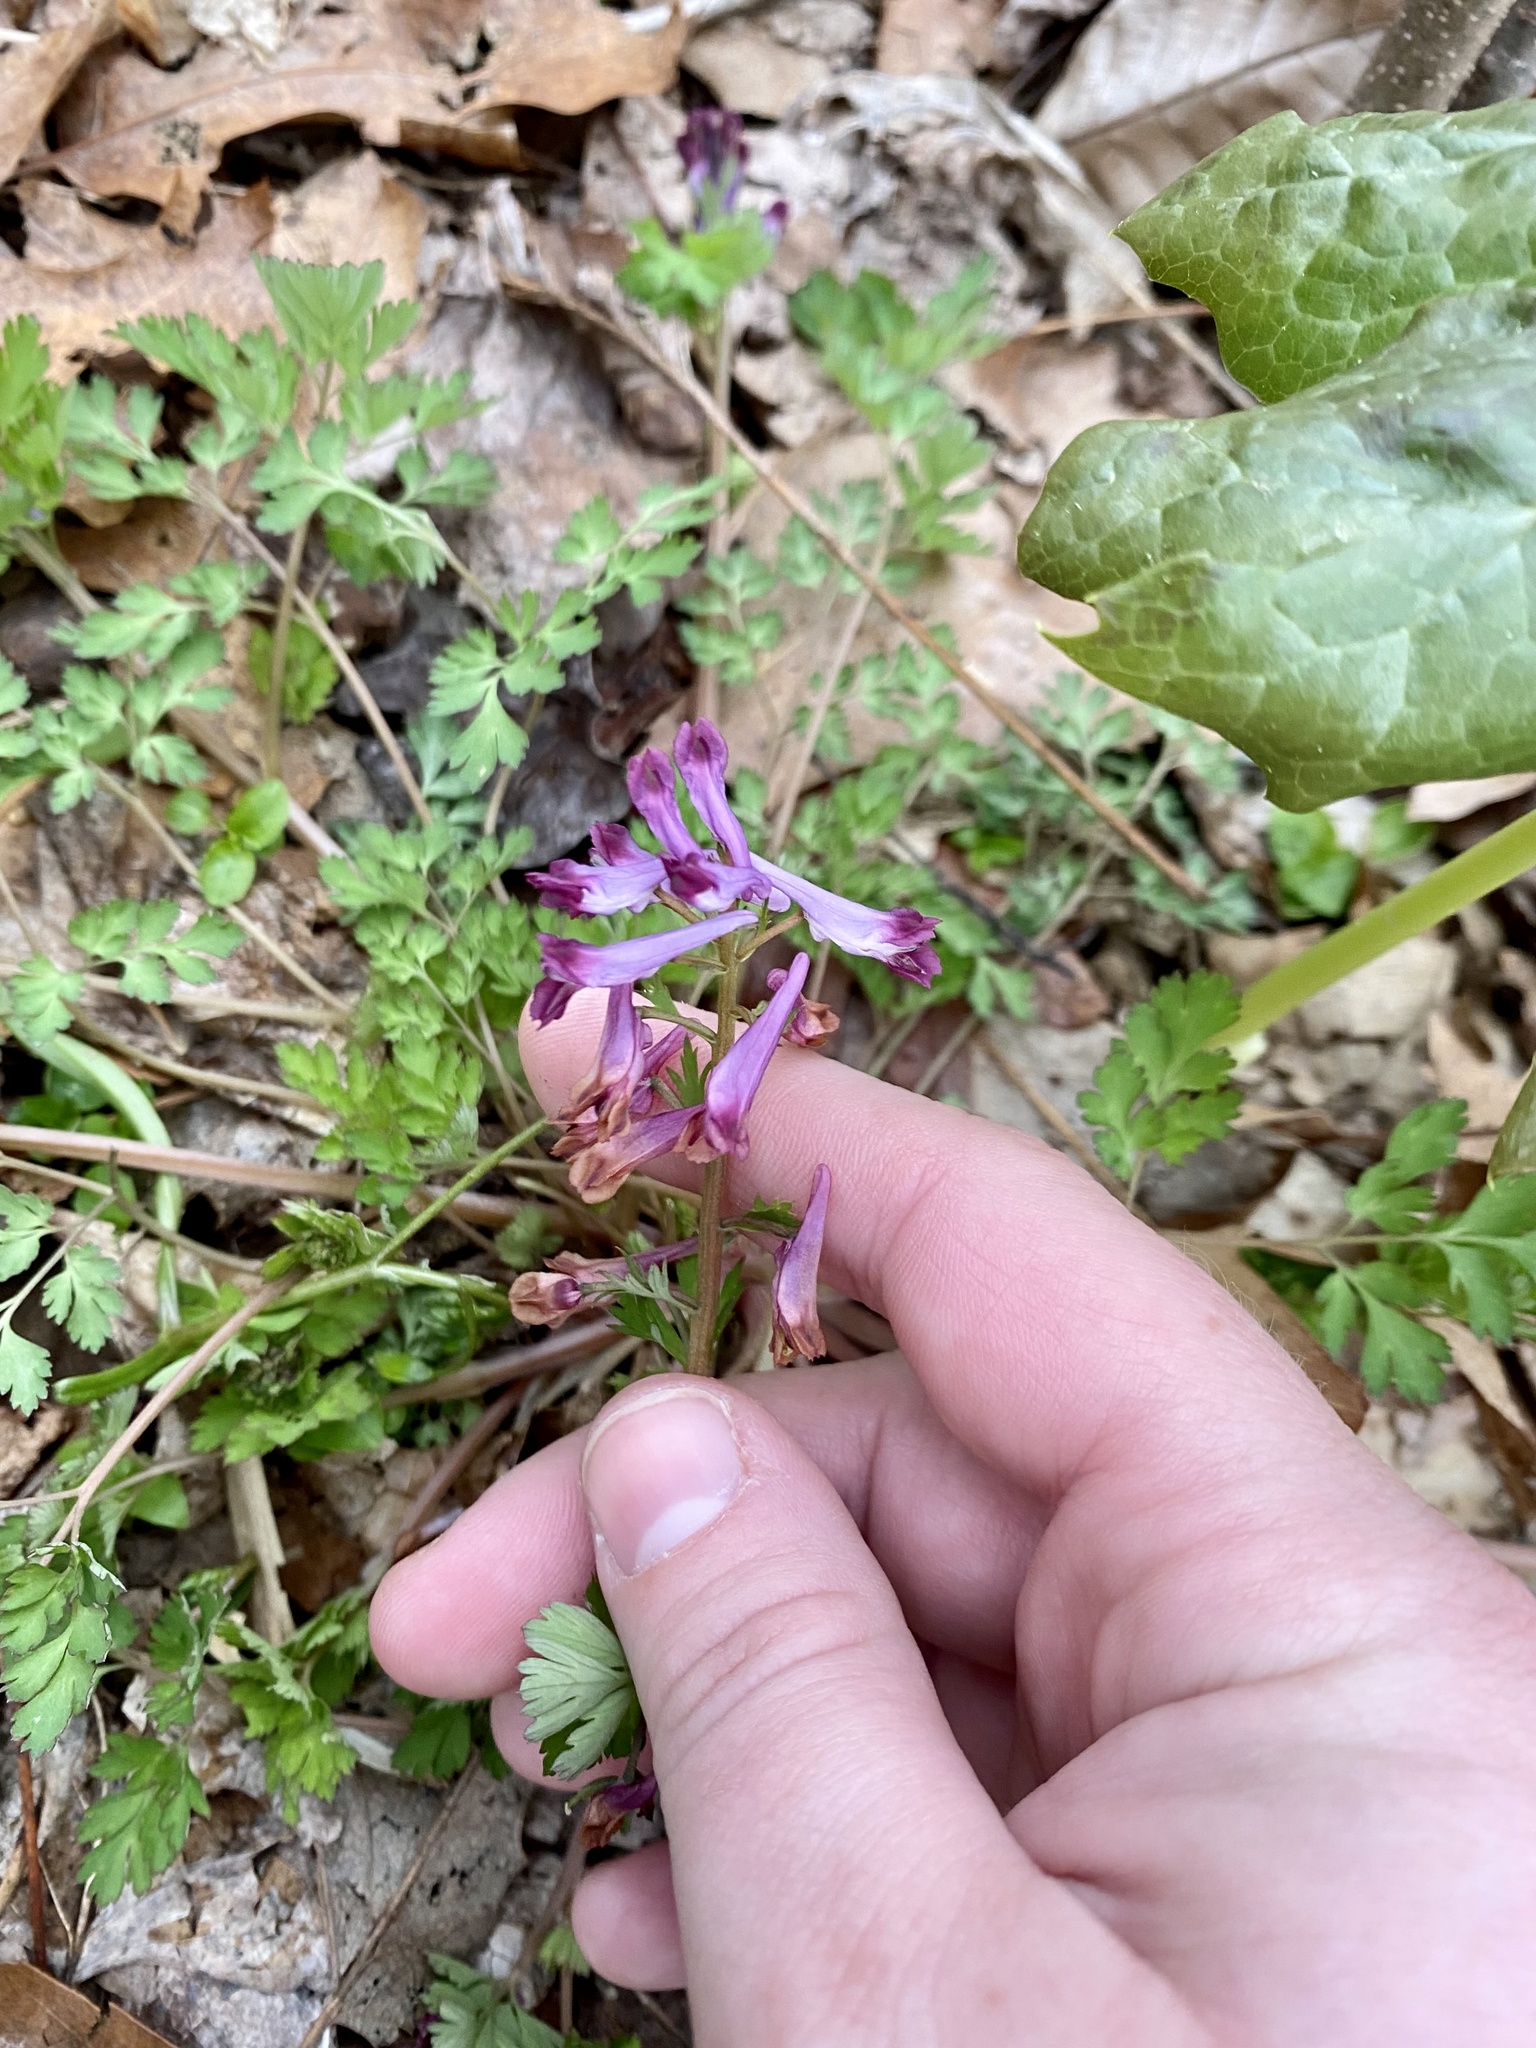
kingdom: Plantae
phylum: Tracheophyta
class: Magnoliopsida
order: Ranunculales
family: Papaveraceae
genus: Corydalis
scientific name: Corydalis incisa
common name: Incised fumewort
